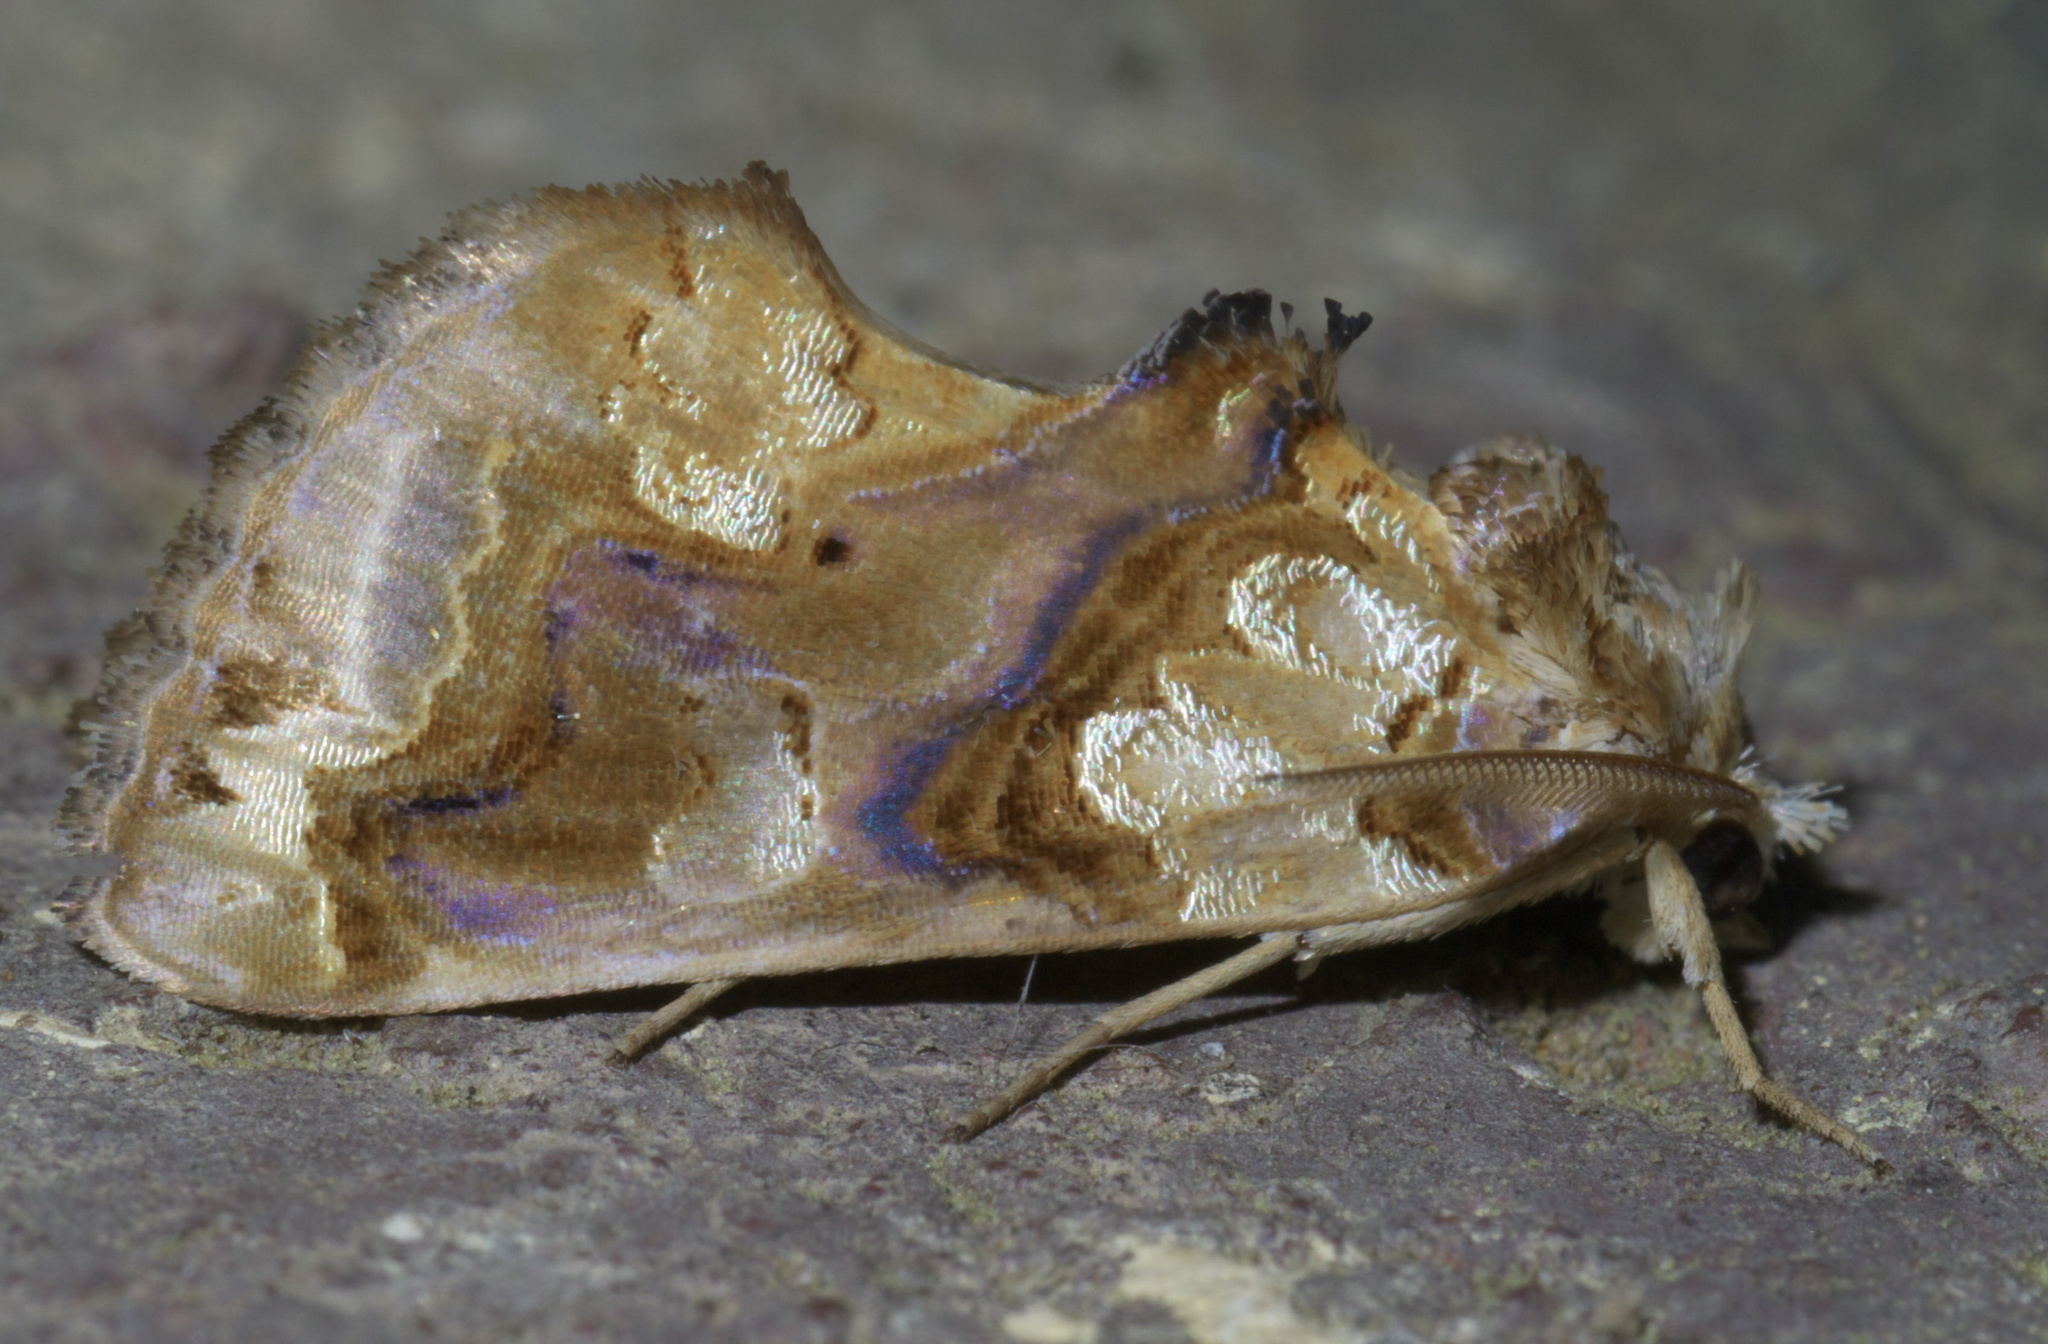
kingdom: Animalia
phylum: Arthropoda
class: Insecta
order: Lepidoptera
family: Erebidae
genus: Plusiodonta
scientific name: Plusiodonta compressipalpis
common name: Moonseed moth
